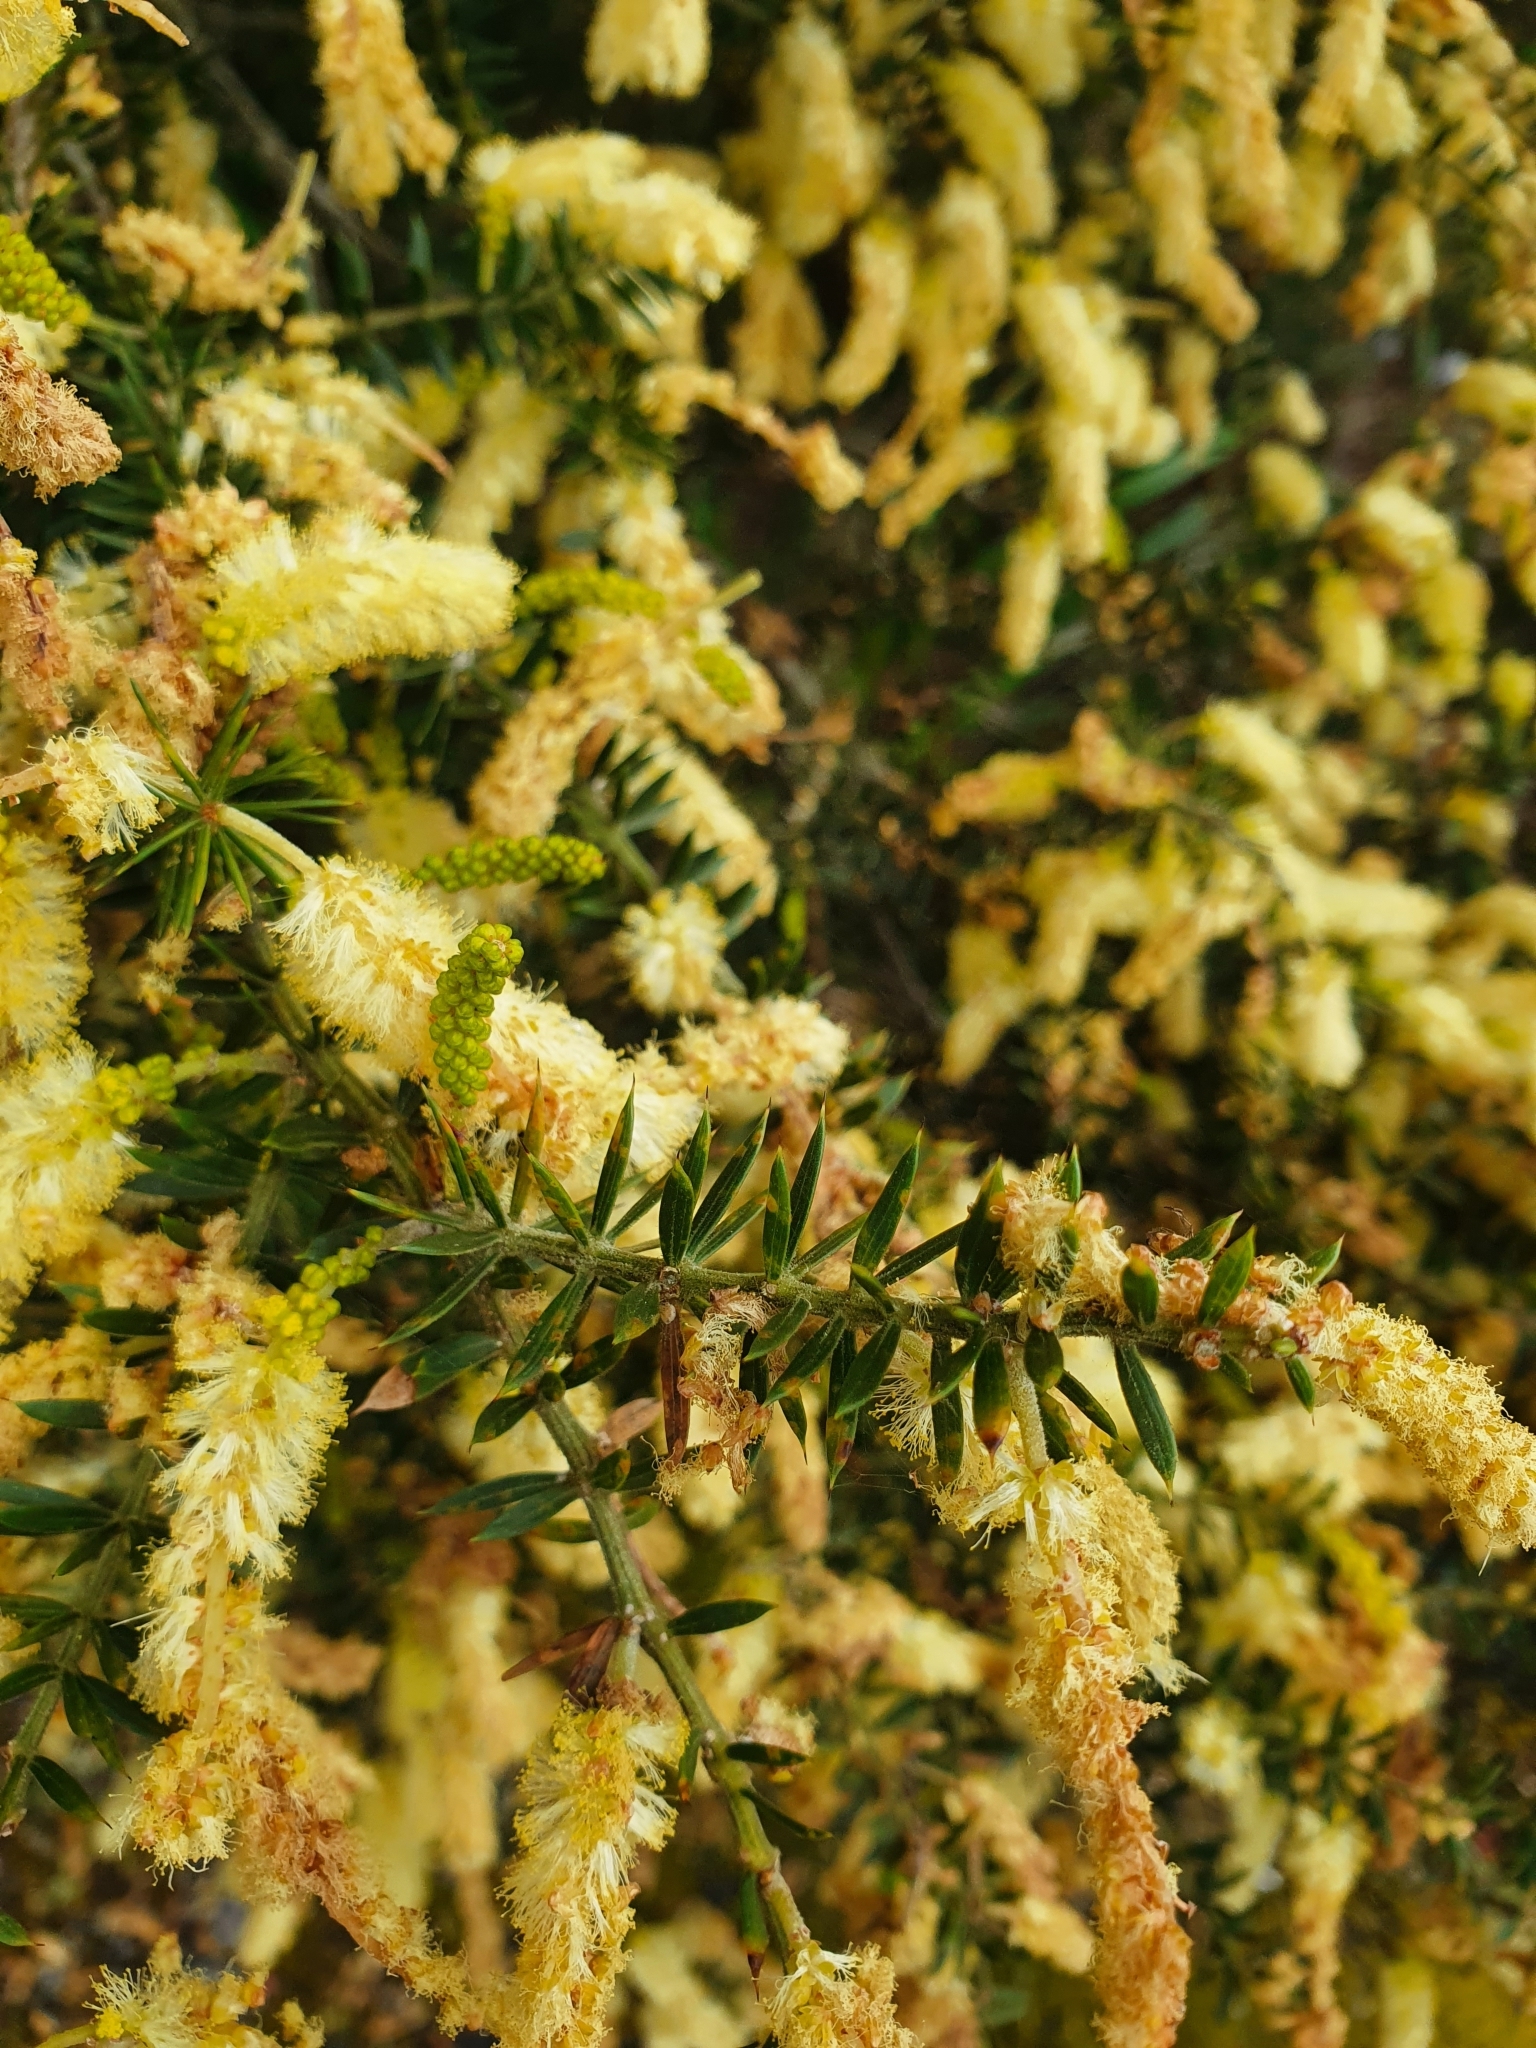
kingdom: Plantae
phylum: Tracheophyta
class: Magnoliopsida
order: Fabales
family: Fabaceae
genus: Acacia
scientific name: Acacia verticillata
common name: Prickly moses
